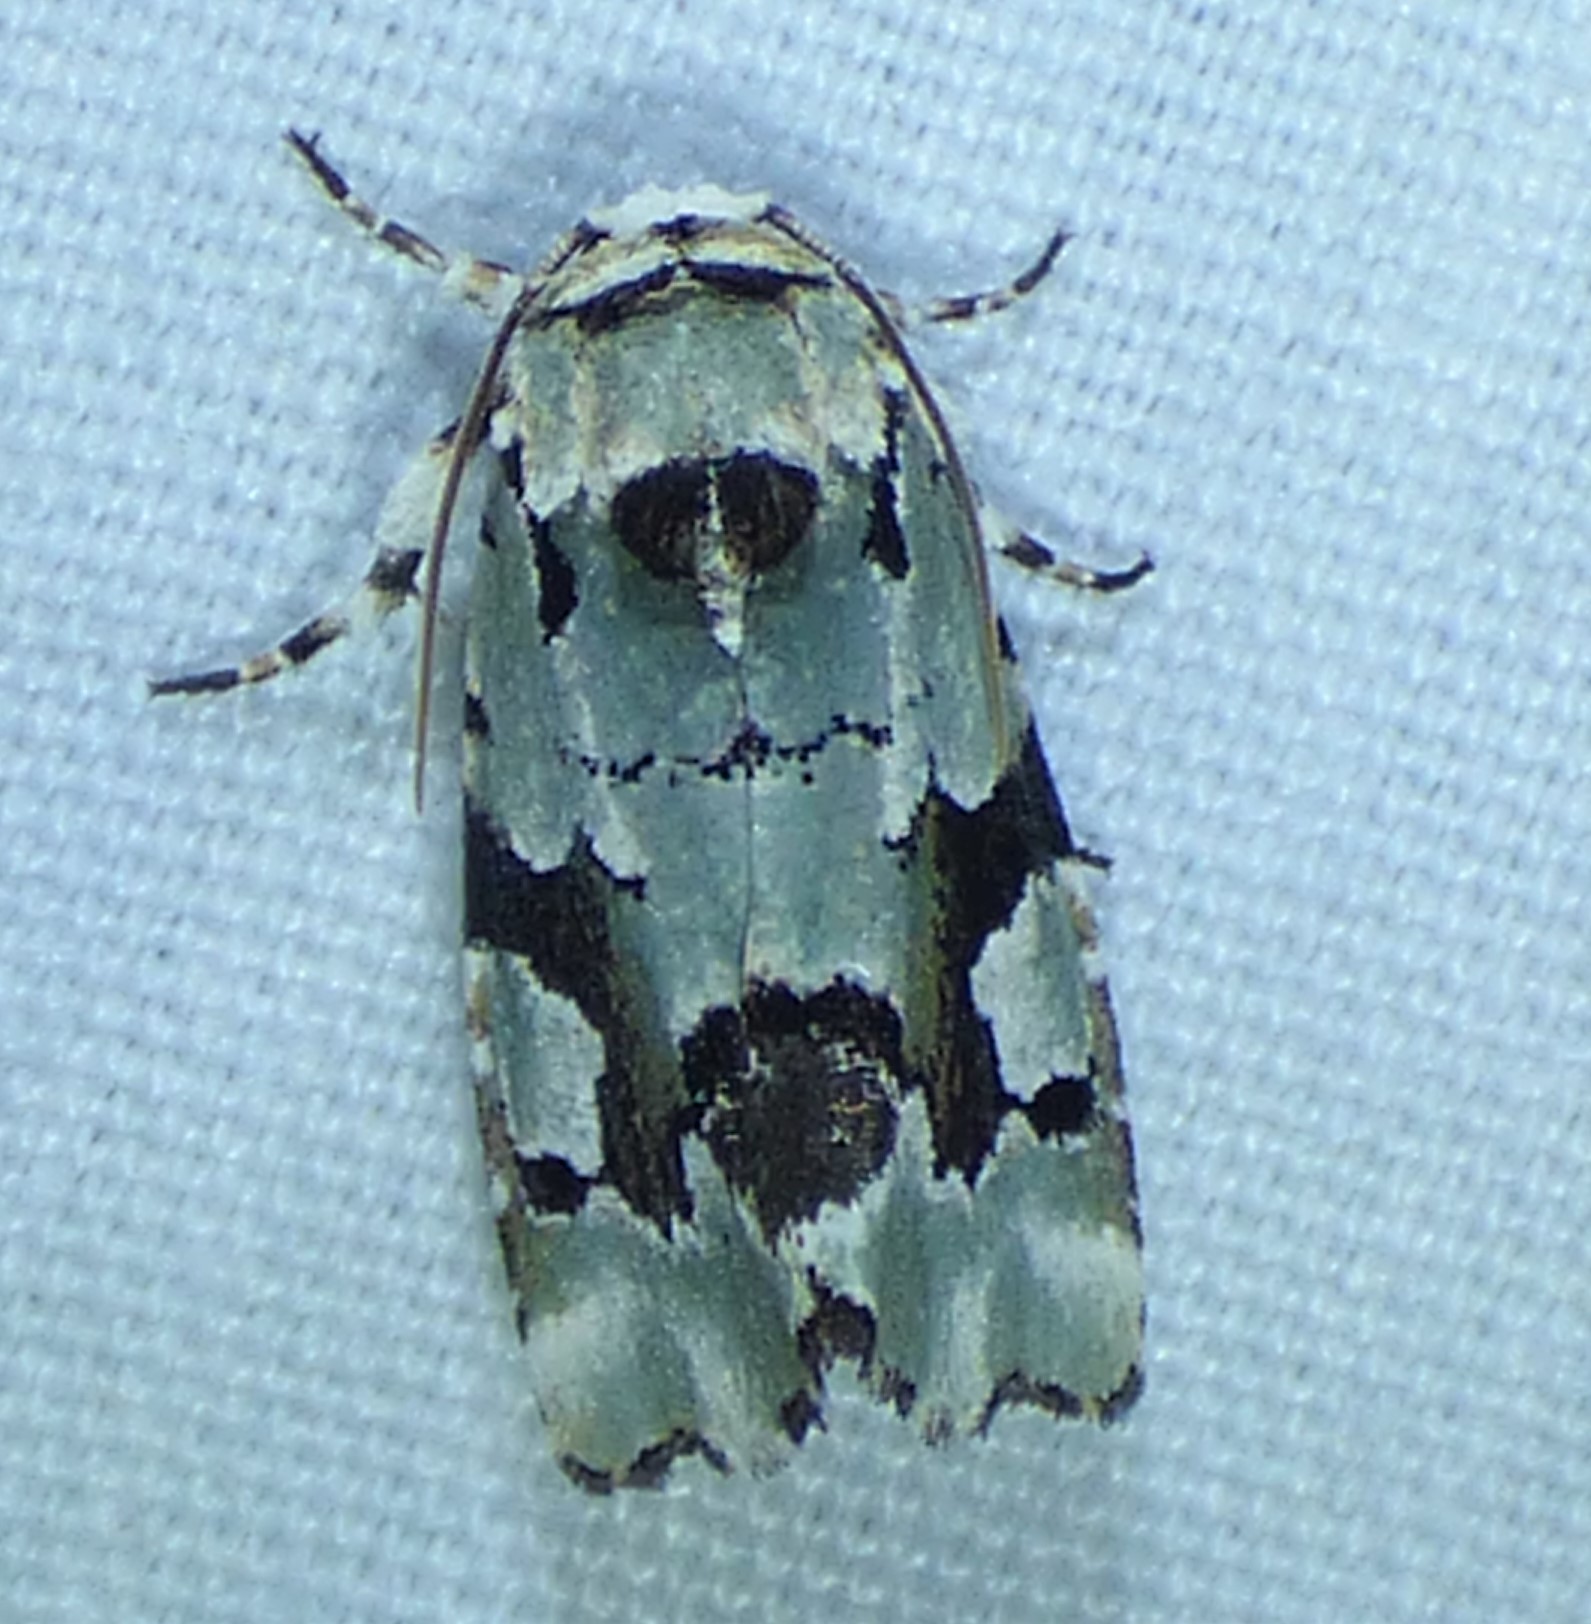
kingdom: Animalia
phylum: Arthropoda
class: Insecta
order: Lepidoptera
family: Noctuidae
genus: Emarginea
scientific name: Emarginea percara
